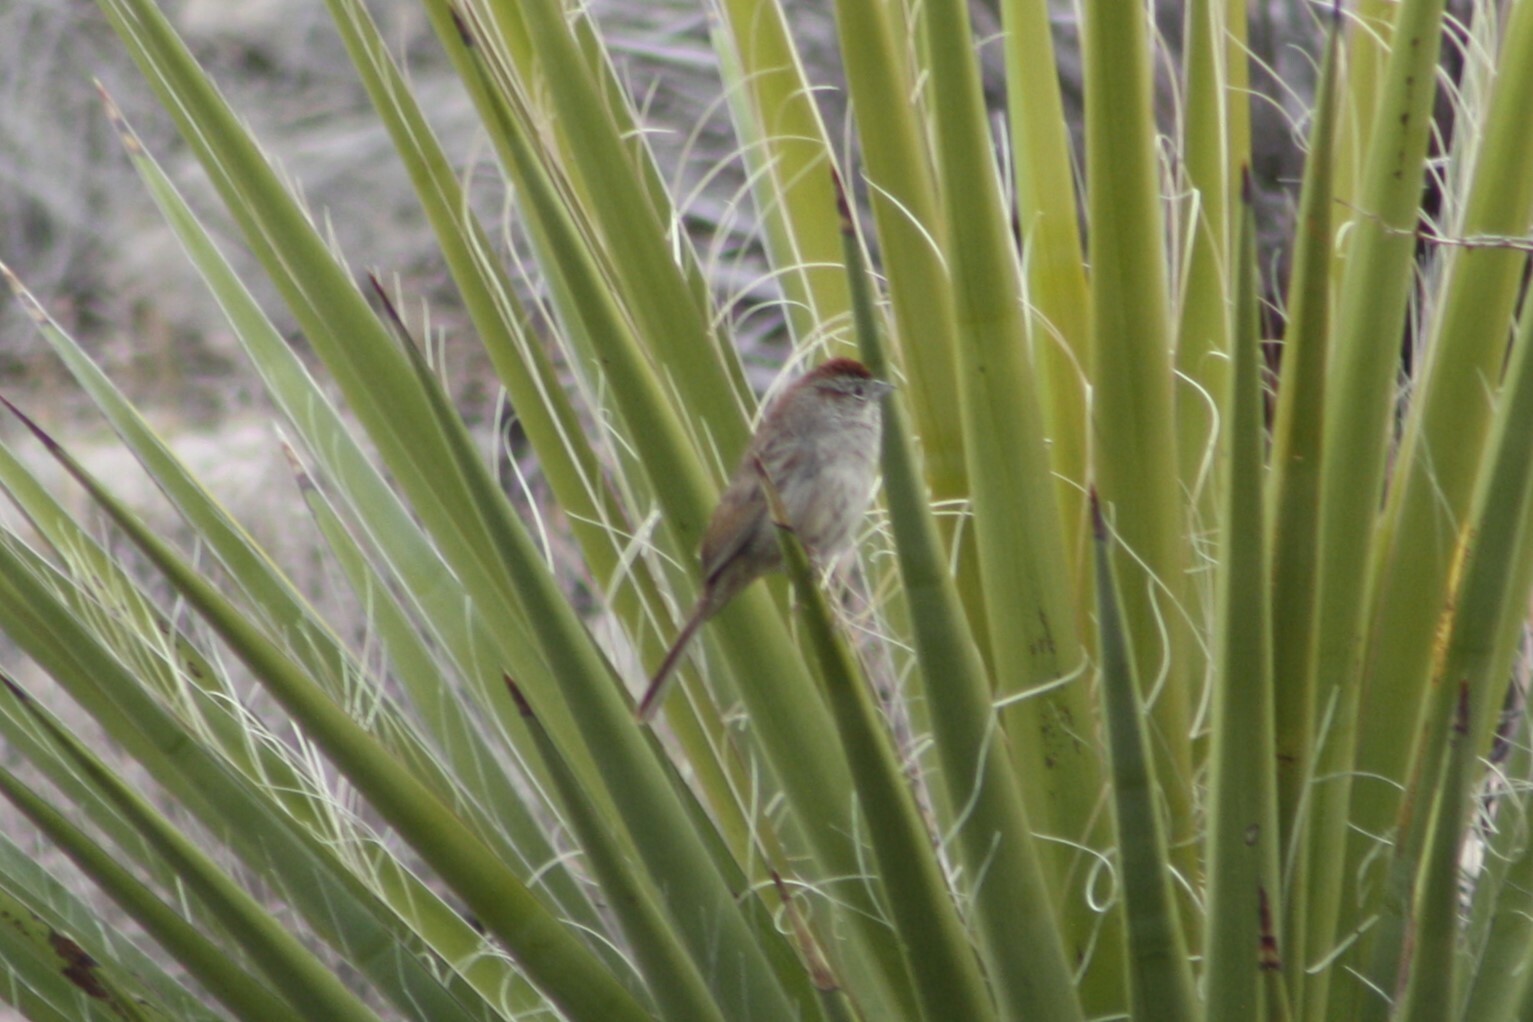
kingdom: Animalia
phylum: Chordata
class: Aves
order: Passeriformes
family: Passerellidae
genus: Aimophila
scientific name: Aimophila ruficeps
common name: Rufous-crowned sparrow
